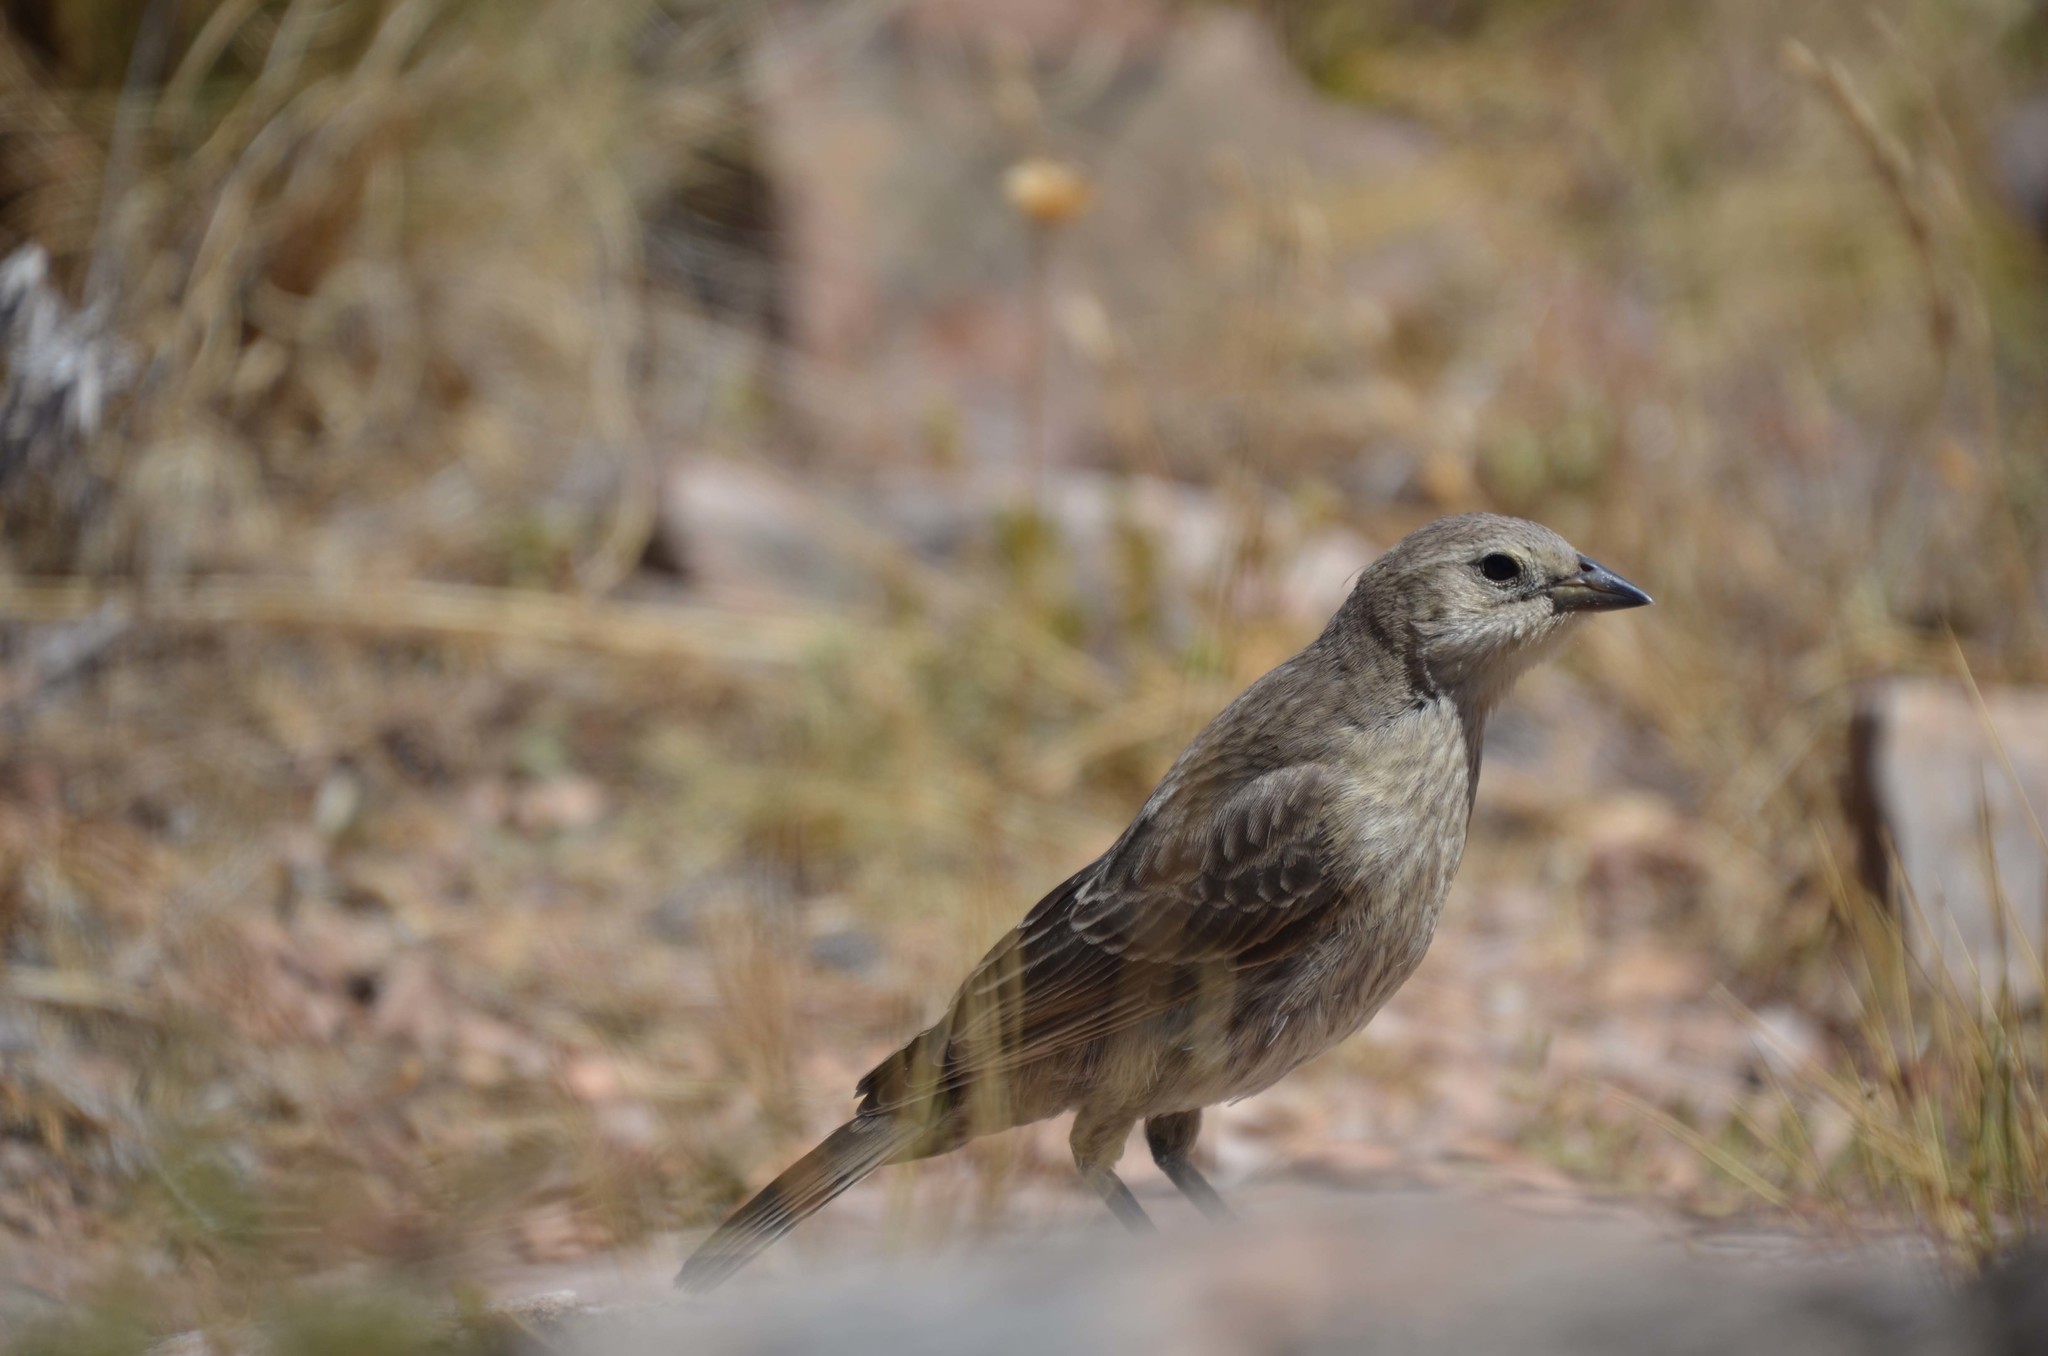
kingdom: Animalia
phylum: Chordata
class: Aves
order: Passeriformes
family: Icteridae
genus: Molothrus
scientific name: Molothrus bonariensis
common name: Shiny cowbird
